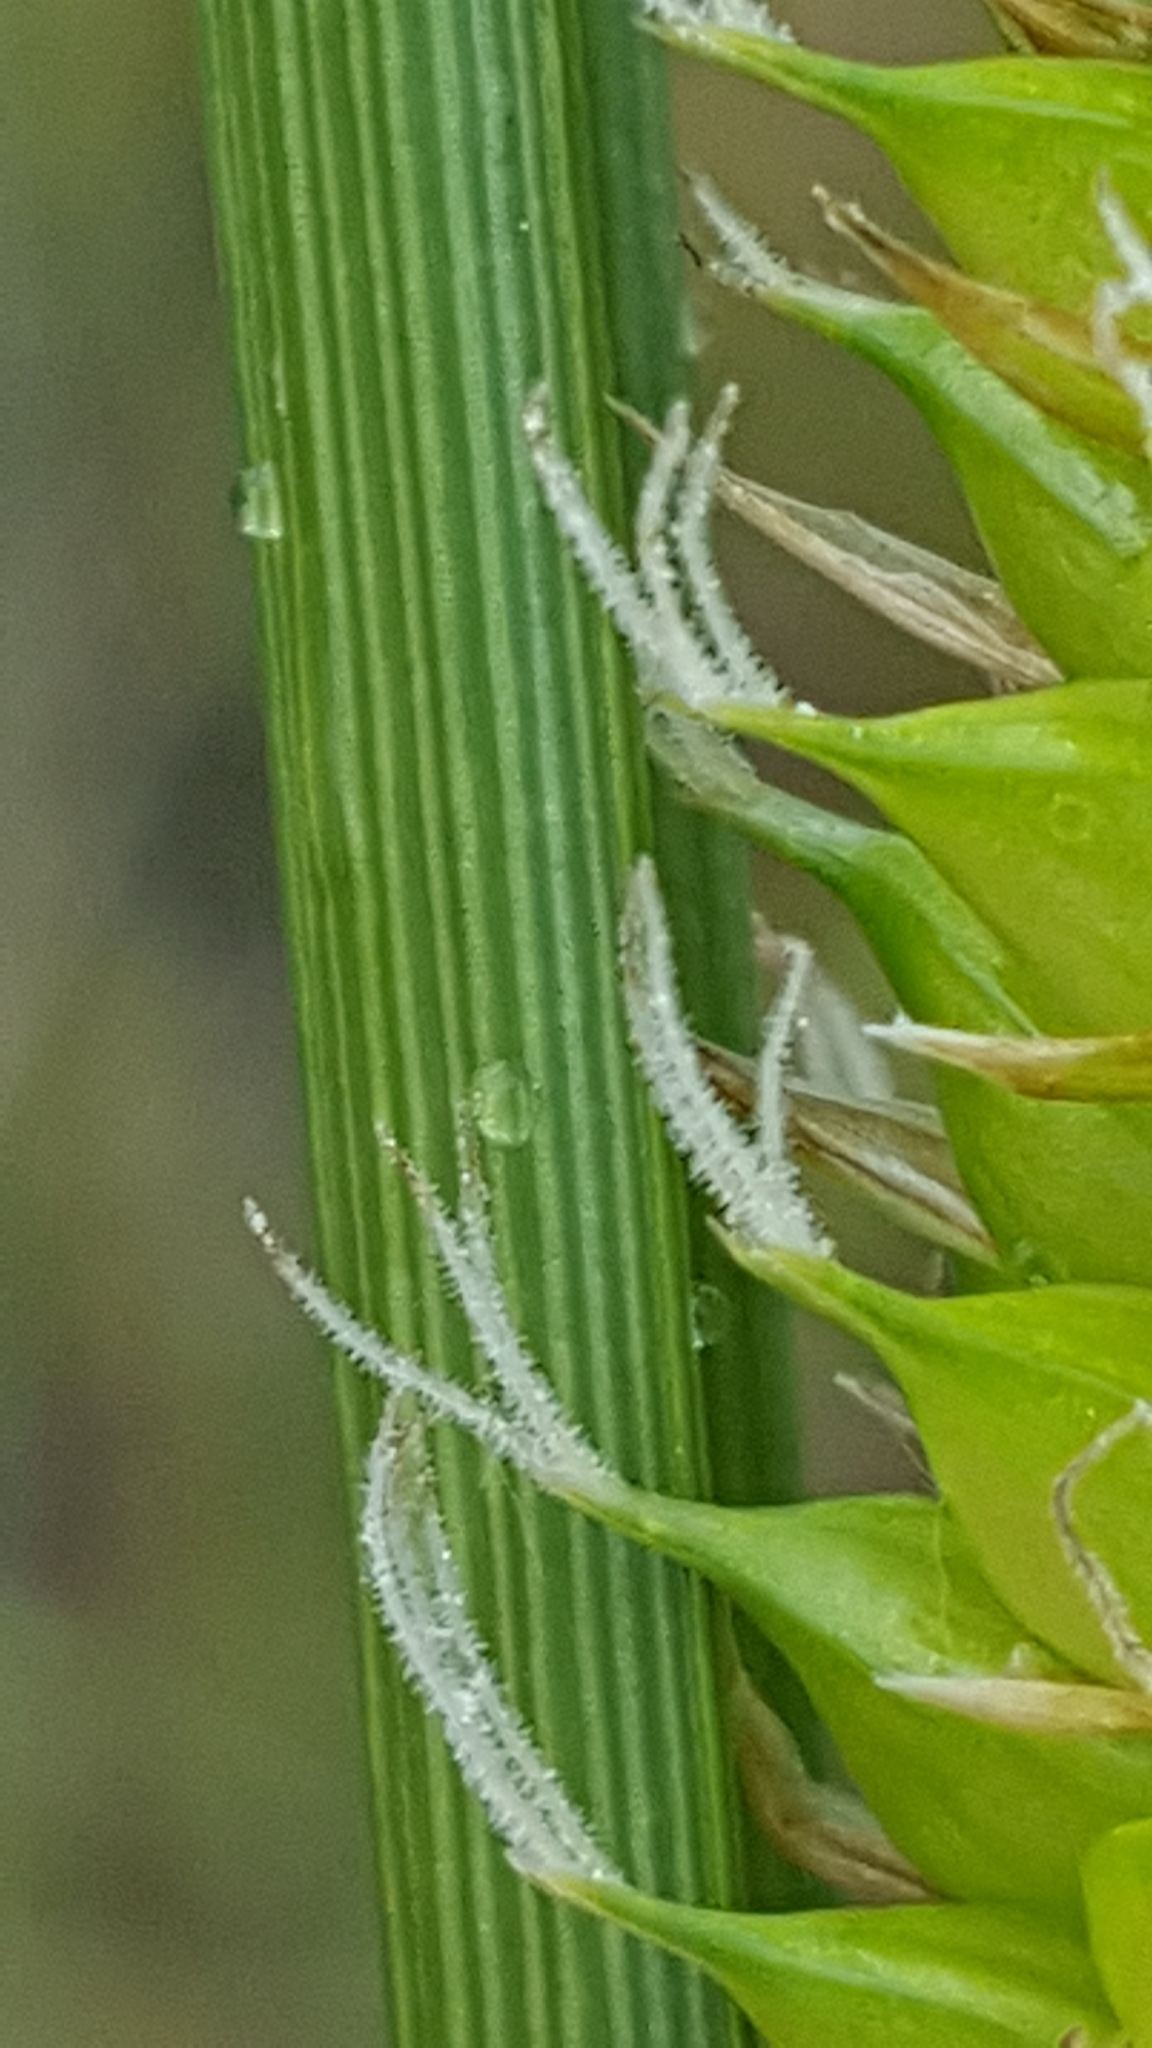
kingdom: Plantae
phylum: Tracheophyta
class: Liliopsida
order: Poales
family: Cyperaceae
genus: Carex
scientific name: Carex utriculata
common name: Beaked sedge
